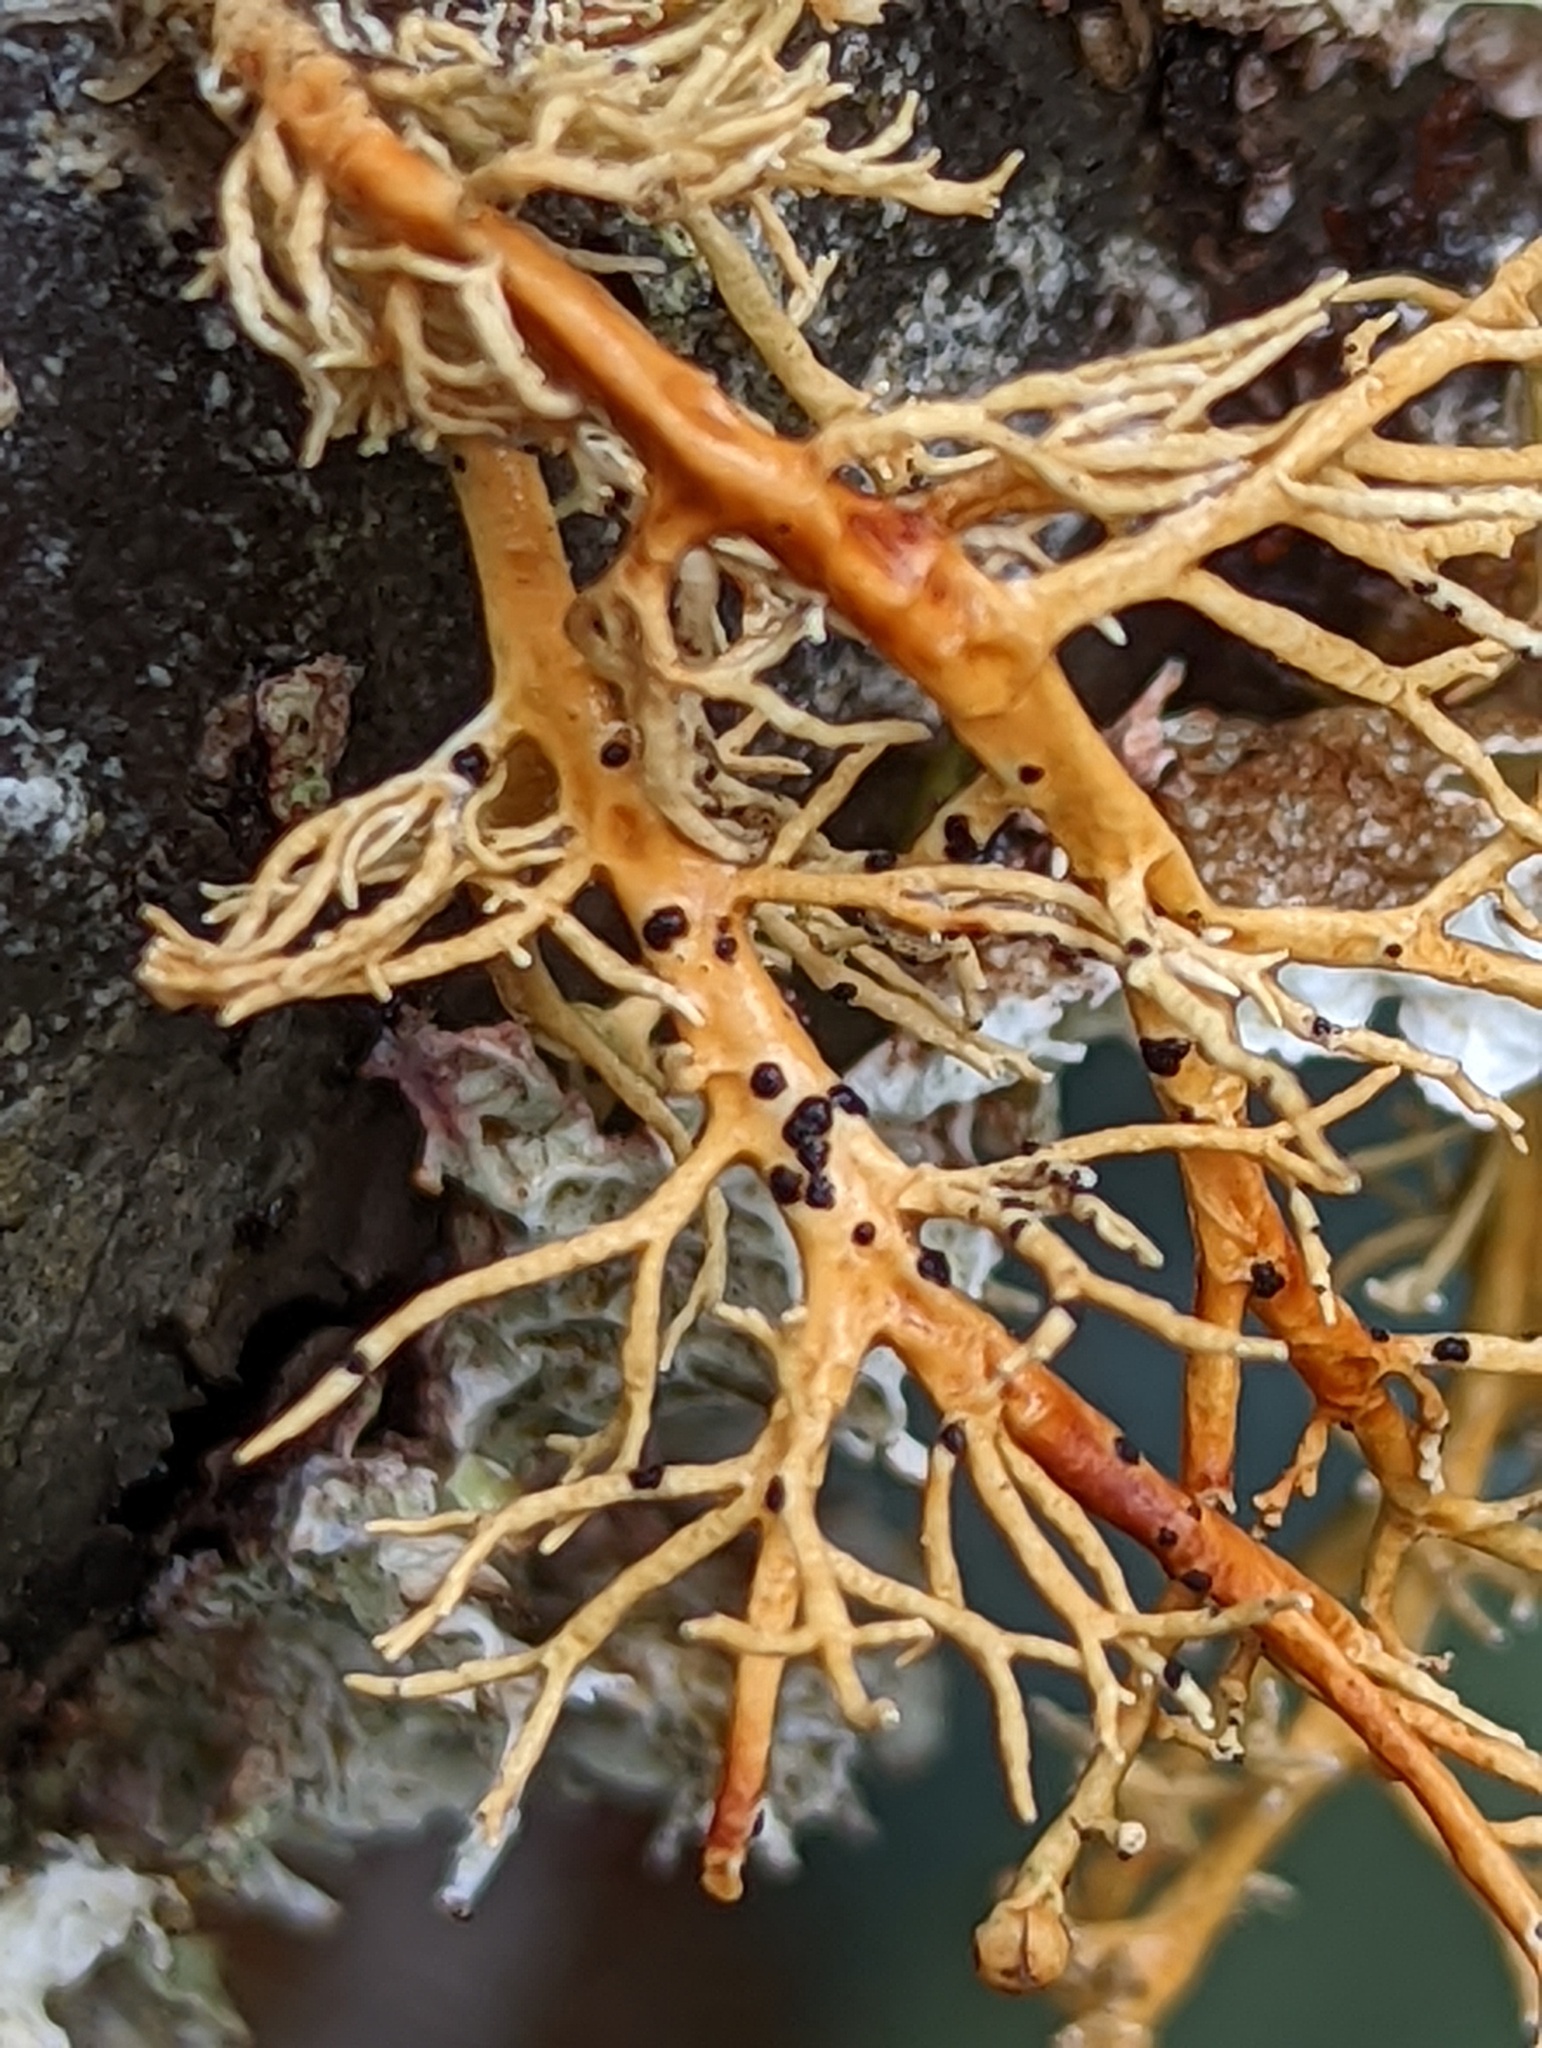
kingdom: Fungi
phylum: Ascomycota
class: Arthoniomycetes
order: Arthoniales
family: Opegraphaceae
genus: Opegrapha
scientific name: Opegrapha sphaerophoricola
